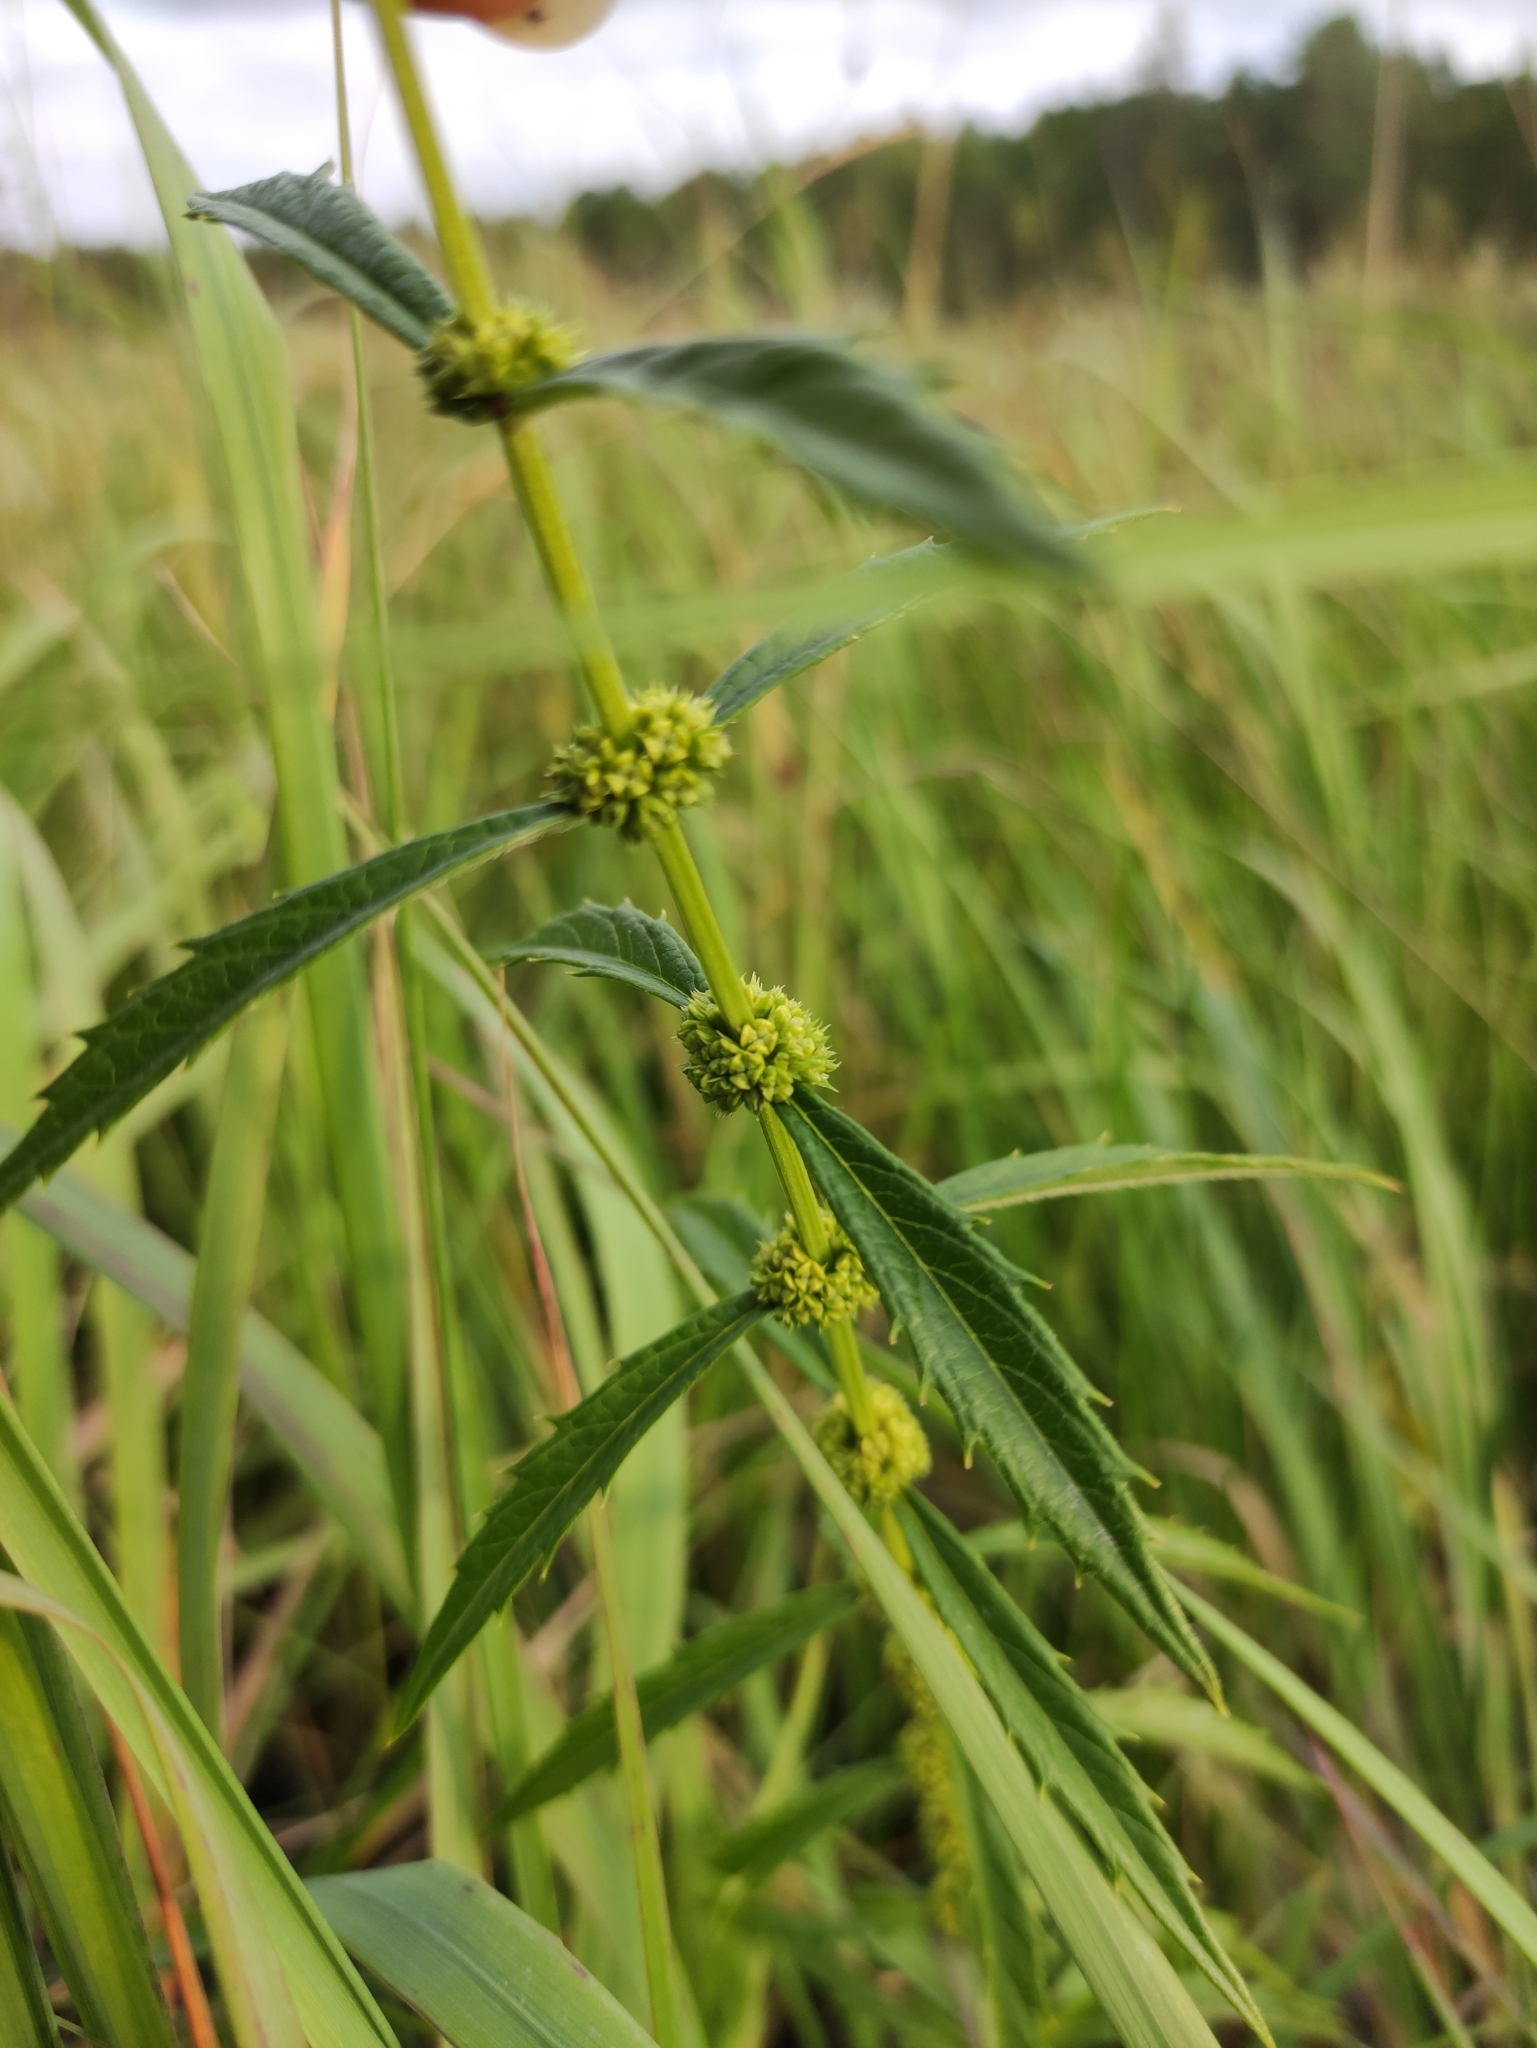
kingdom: Plantae
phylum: Tracheophyta
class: Magnoliopsida
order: Lamiales
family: Lamiaceae
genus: Lycopus
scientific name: Lycopus europaeus
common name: European bugleweed
